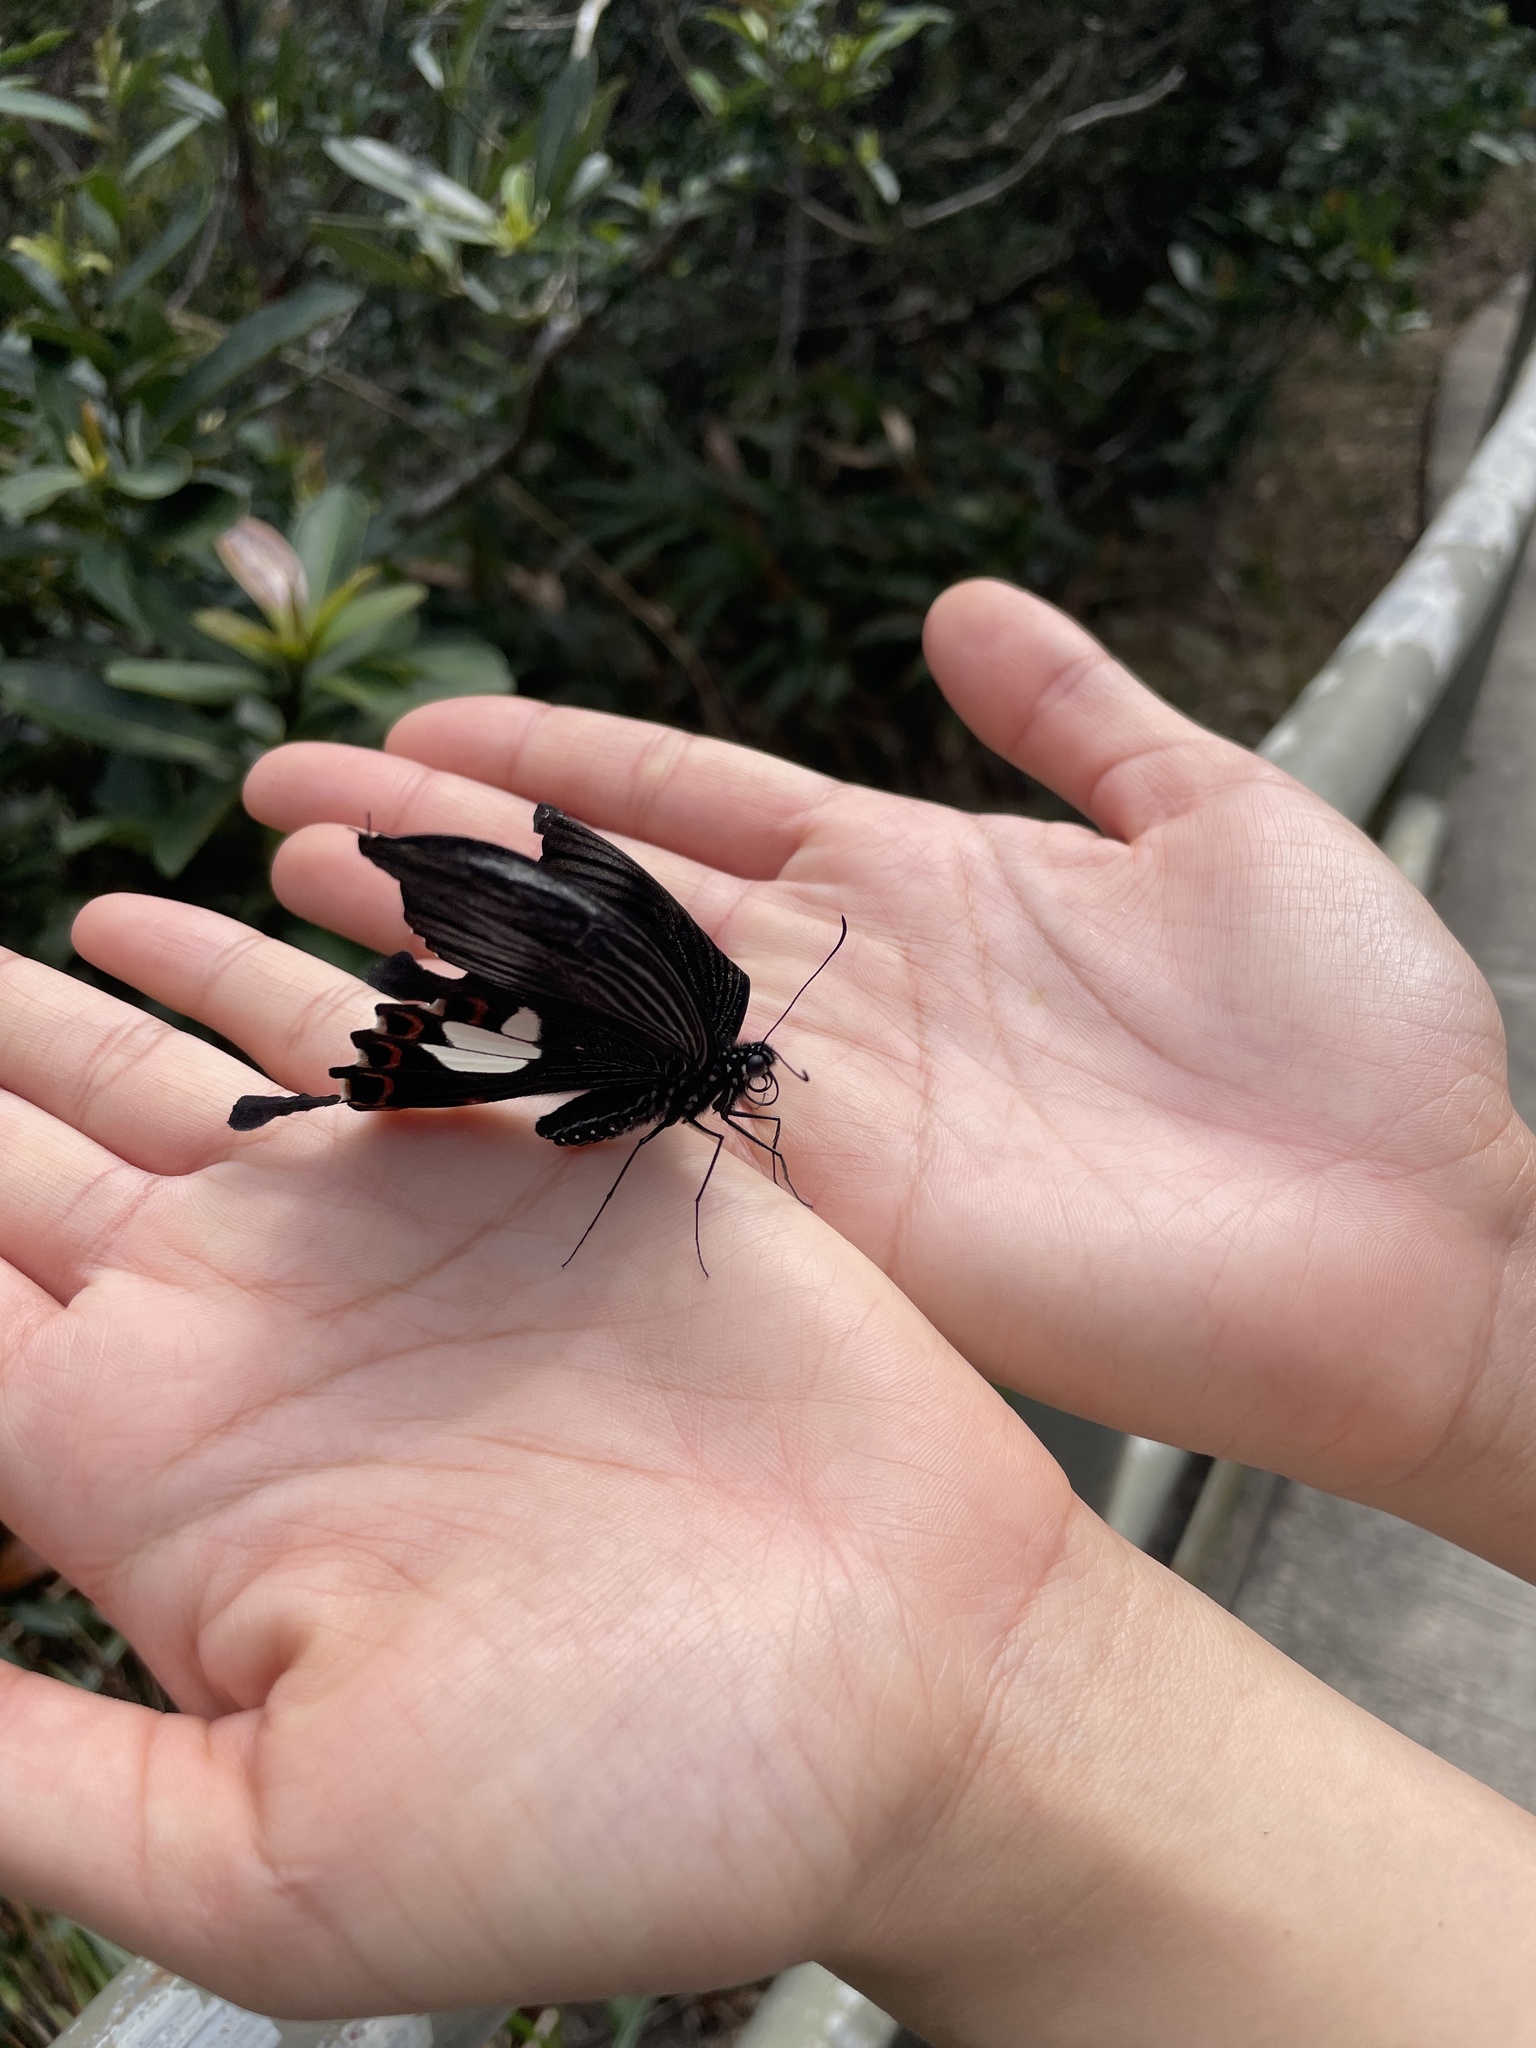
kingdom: Animalia
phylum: Arthropoda
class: Insecta
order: Lepidoptera
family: Papilionidae
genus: Papilio
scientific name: Papilio helenus
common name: Red helen
